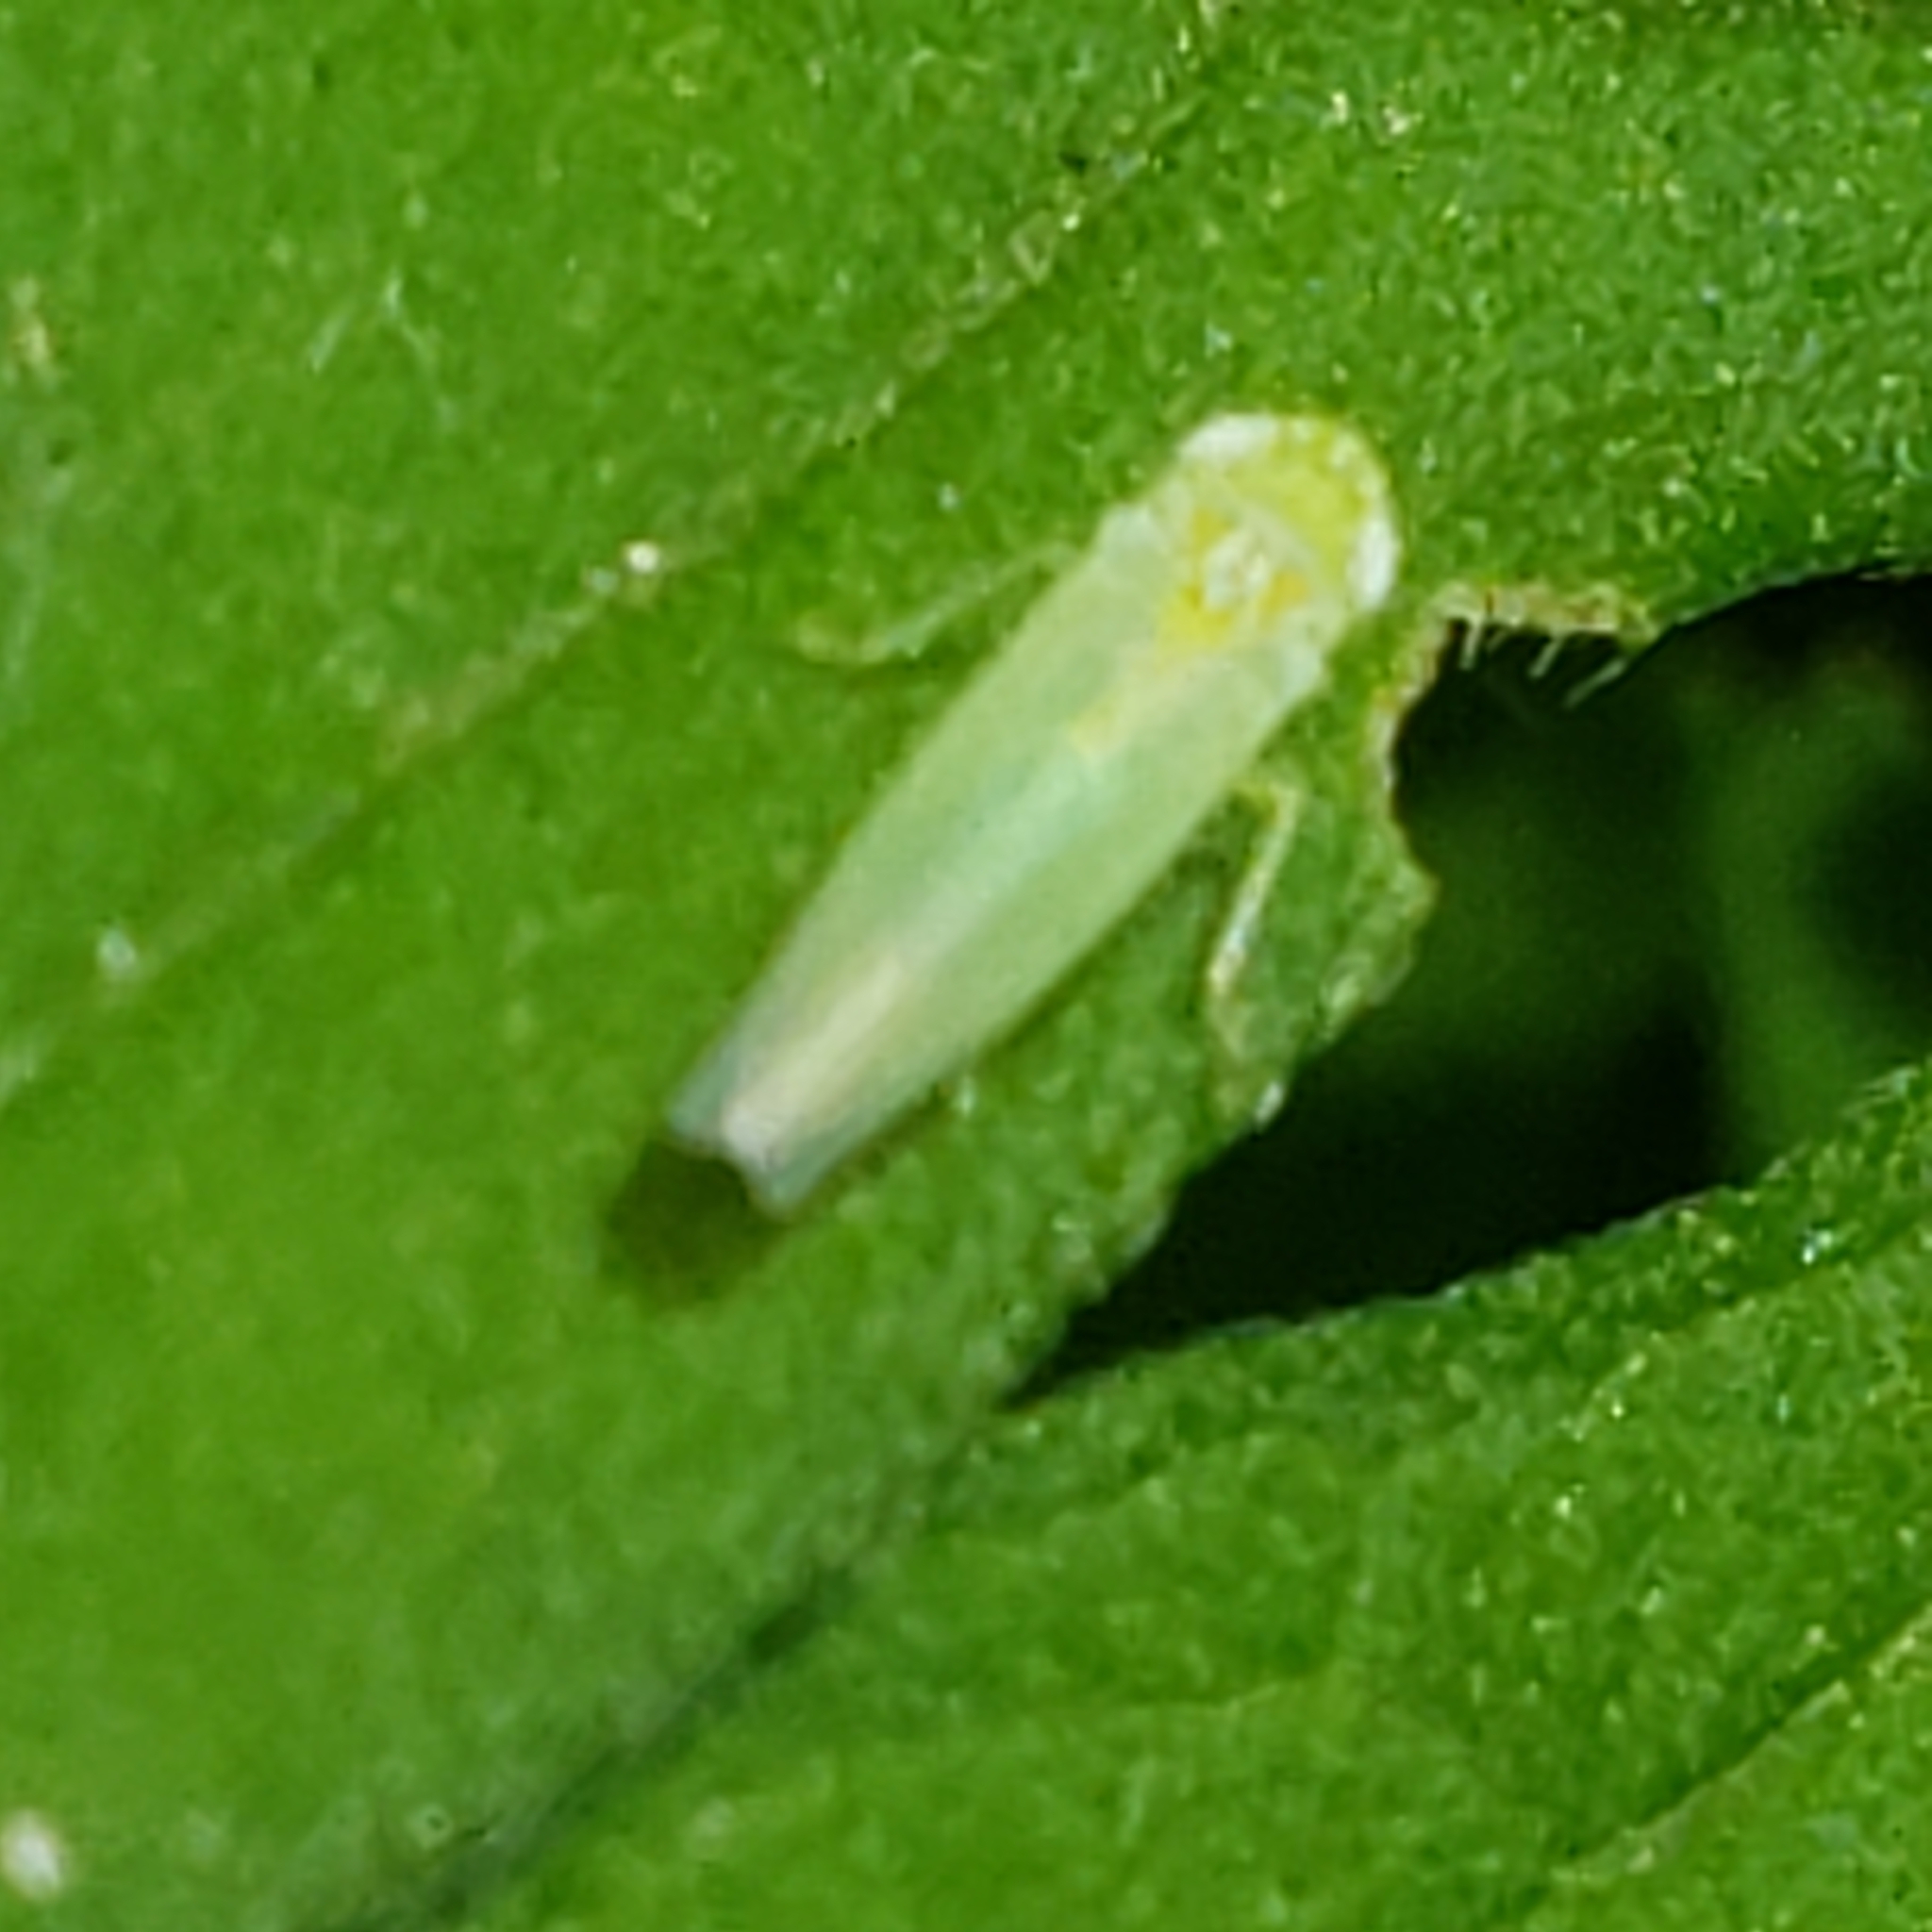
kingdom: Animalia
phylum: Arthropoda
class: Insecta
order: Hemiptera
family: Cicadellidae
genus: Empoasca
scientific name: Empoasca fabae
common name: Potato leafhopper
